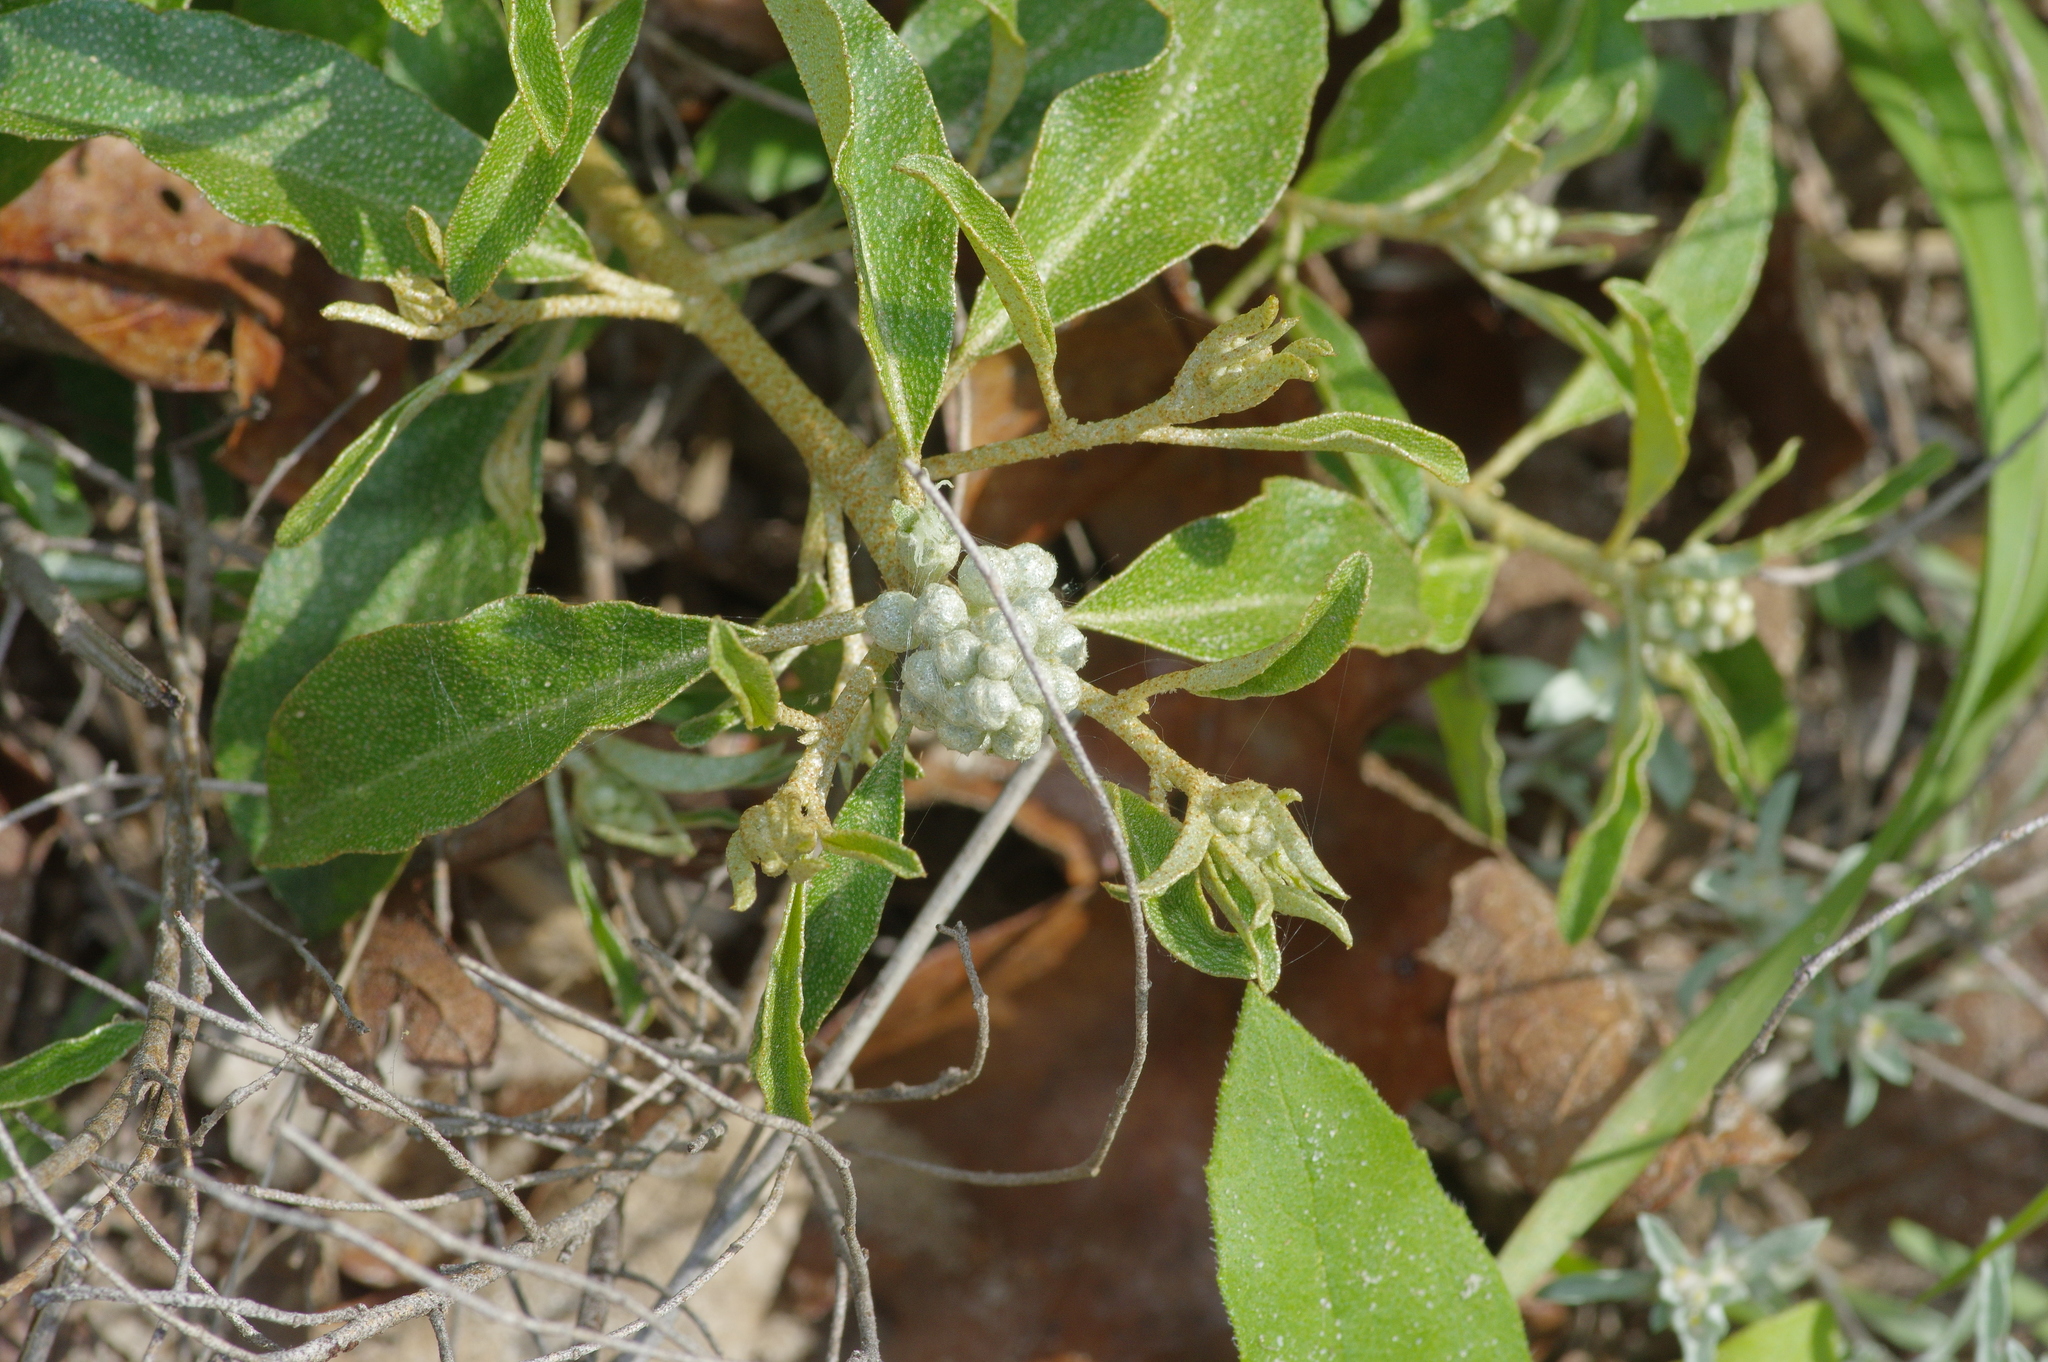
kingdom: Plantae
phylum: Tracheophyta
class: Magnoliopsida
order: Malpighiales
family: Euphorbiaceae
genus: Croton
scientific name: Croton argyranthemus
